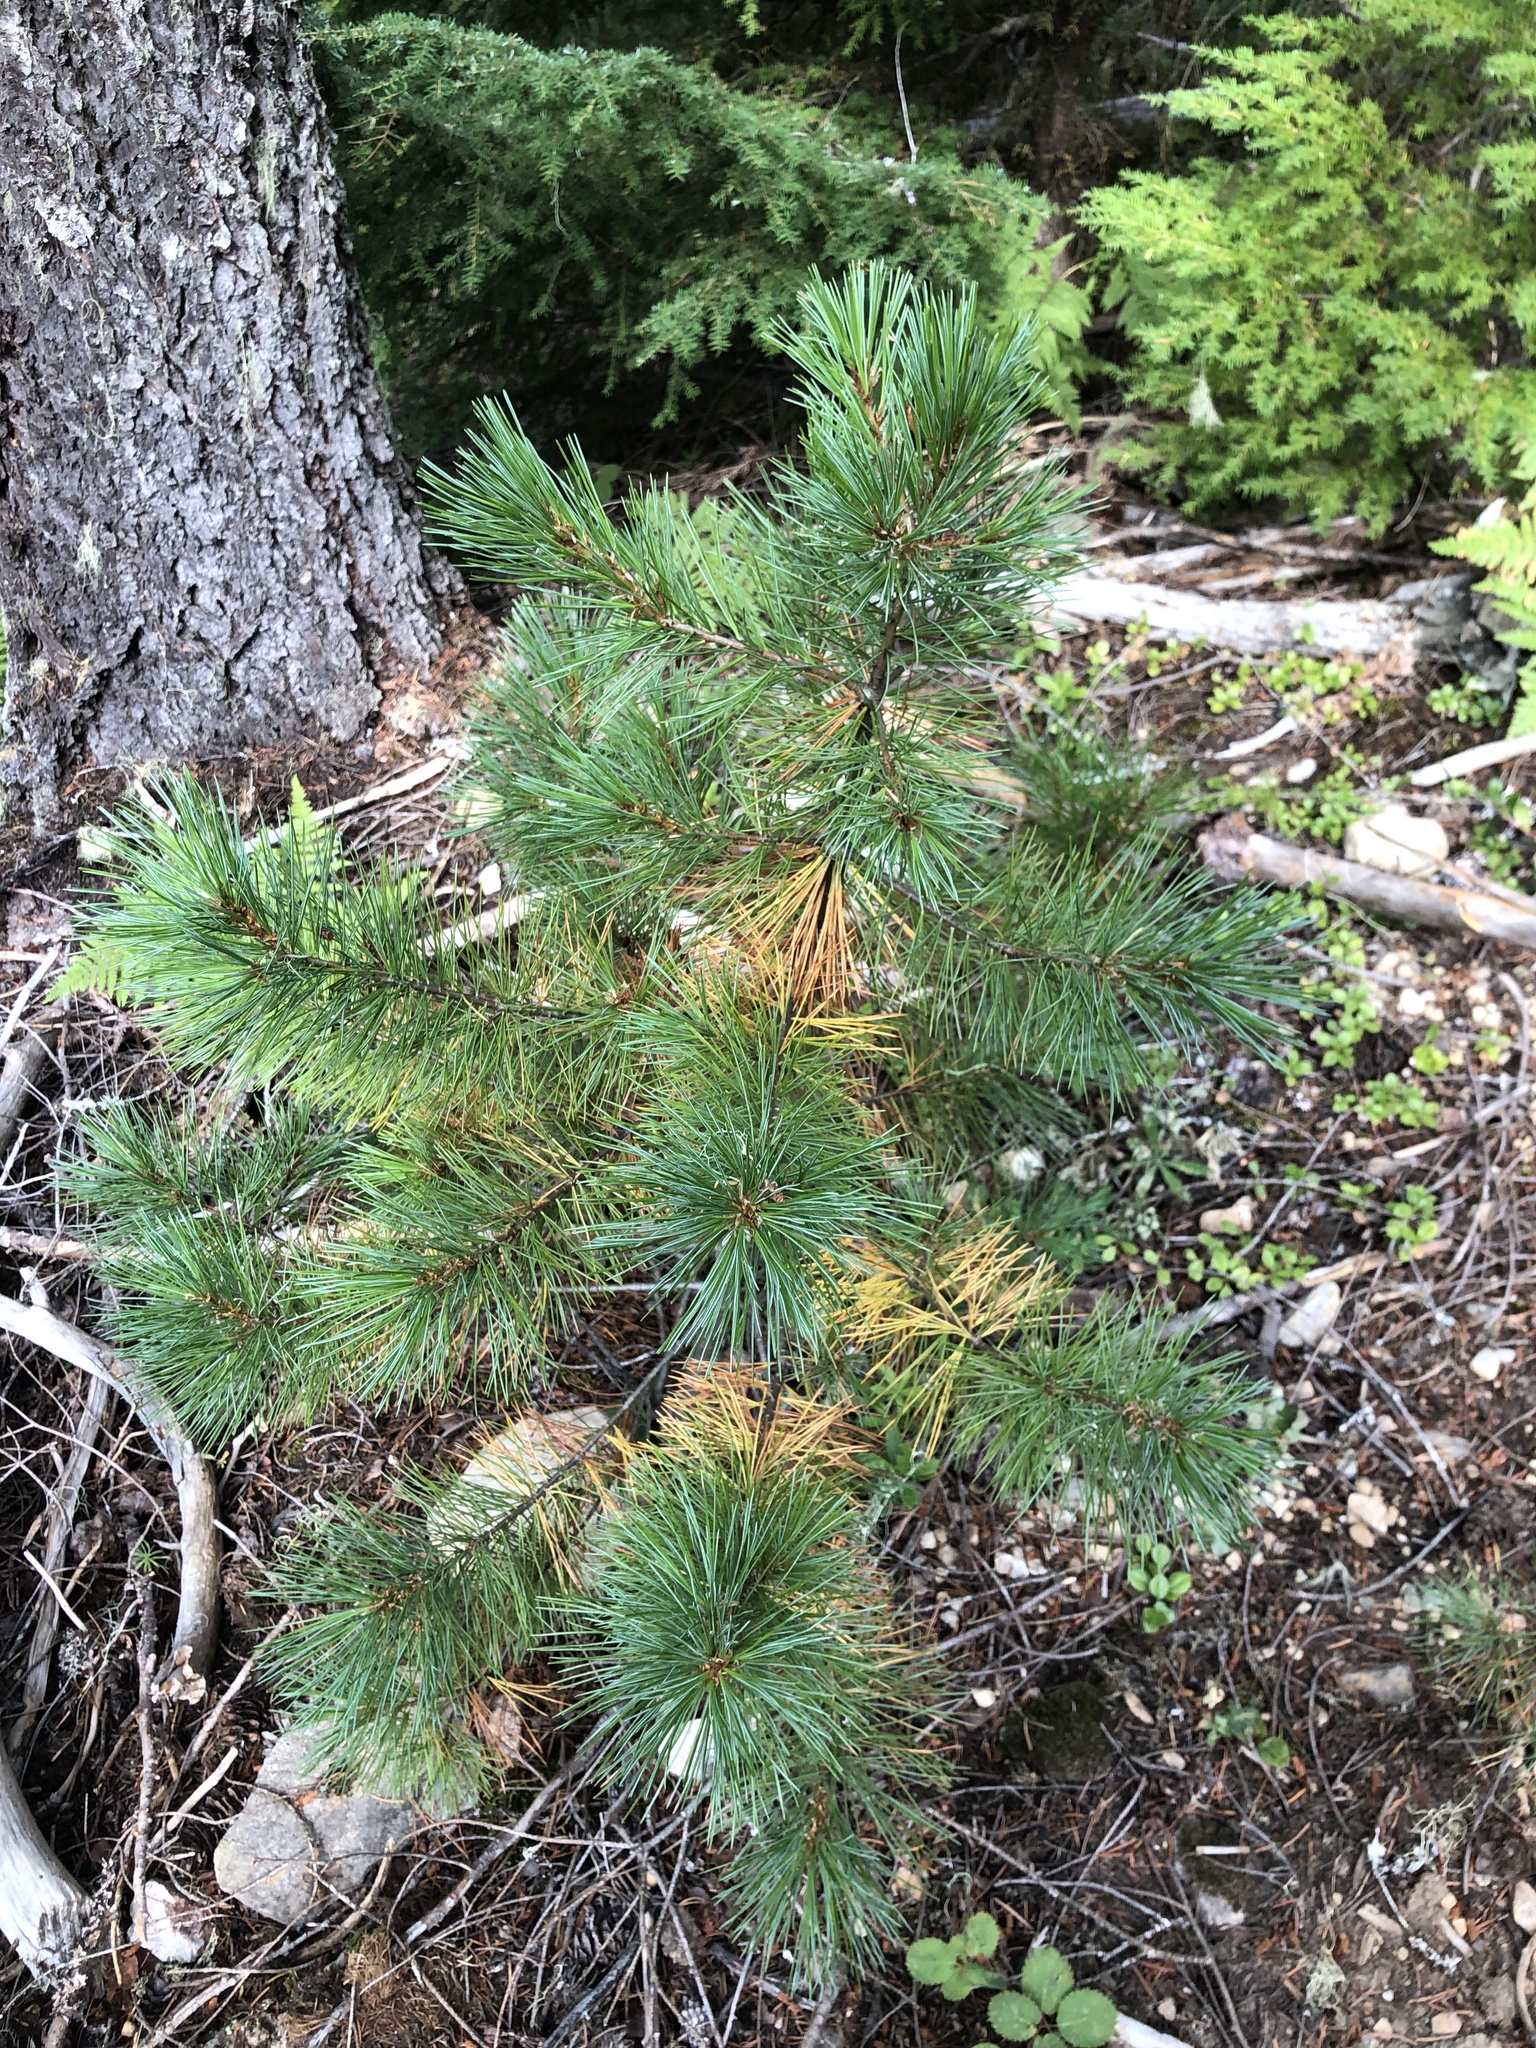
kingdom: Plantae
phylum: Tracheophyta
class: Pinopsida
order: Pinales
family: Pinaceae
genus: Pinus
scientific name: Pinus monticola
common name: Western white pine
